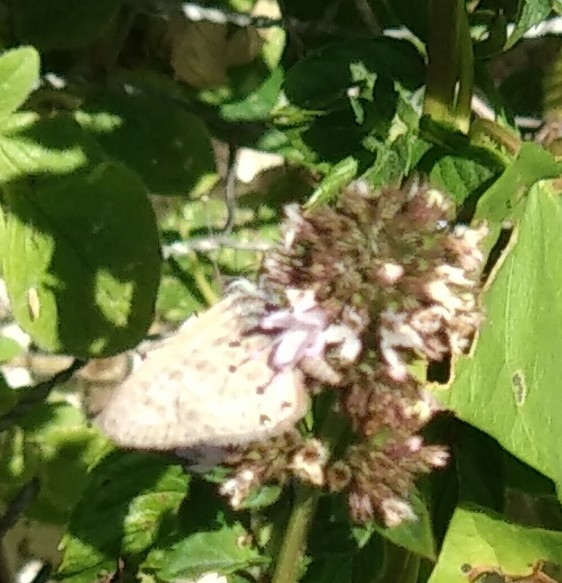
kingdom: Animalia
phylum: Arthropoda
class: Insecta
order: Lepidoptera
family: Lycaenidae
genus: Leptotes
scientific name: Leptotes pirithous
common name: Lang's short-tailed blue
